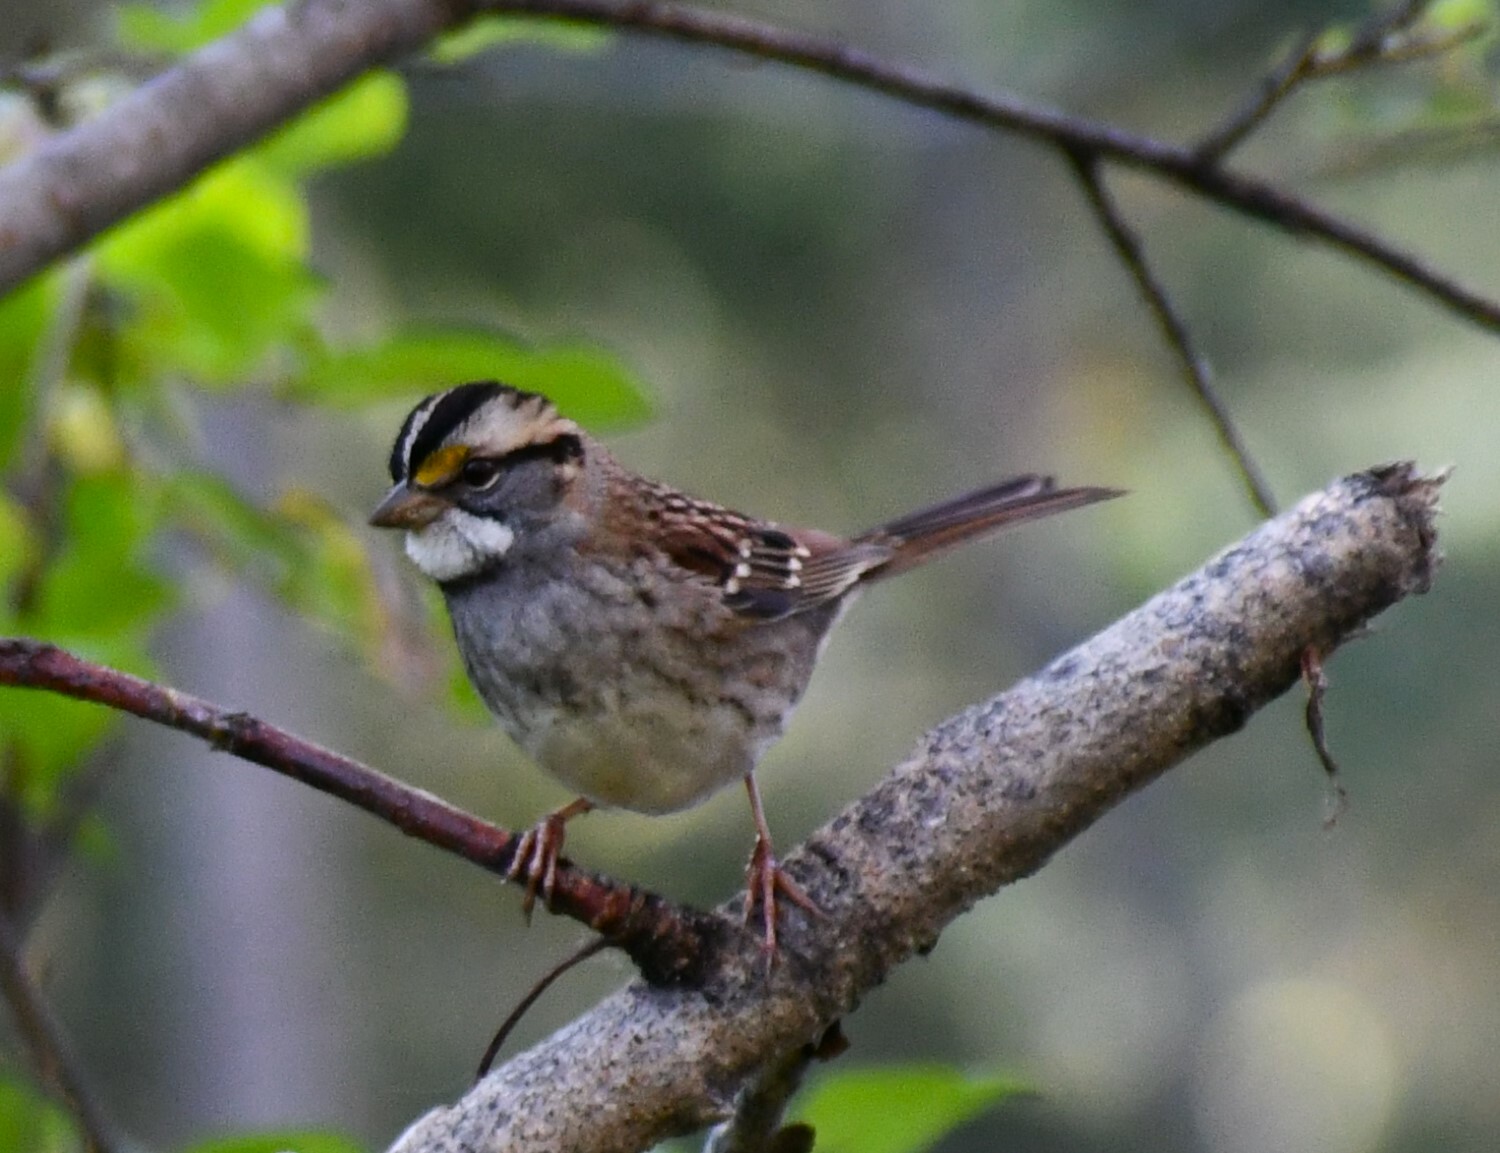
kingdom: Animalia
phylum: Chordata
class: Aves
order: Passeriformes
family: Passerellidae
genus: Zonotrichia
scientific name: Zonotrichia albicollis
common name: White-throated sparrow
